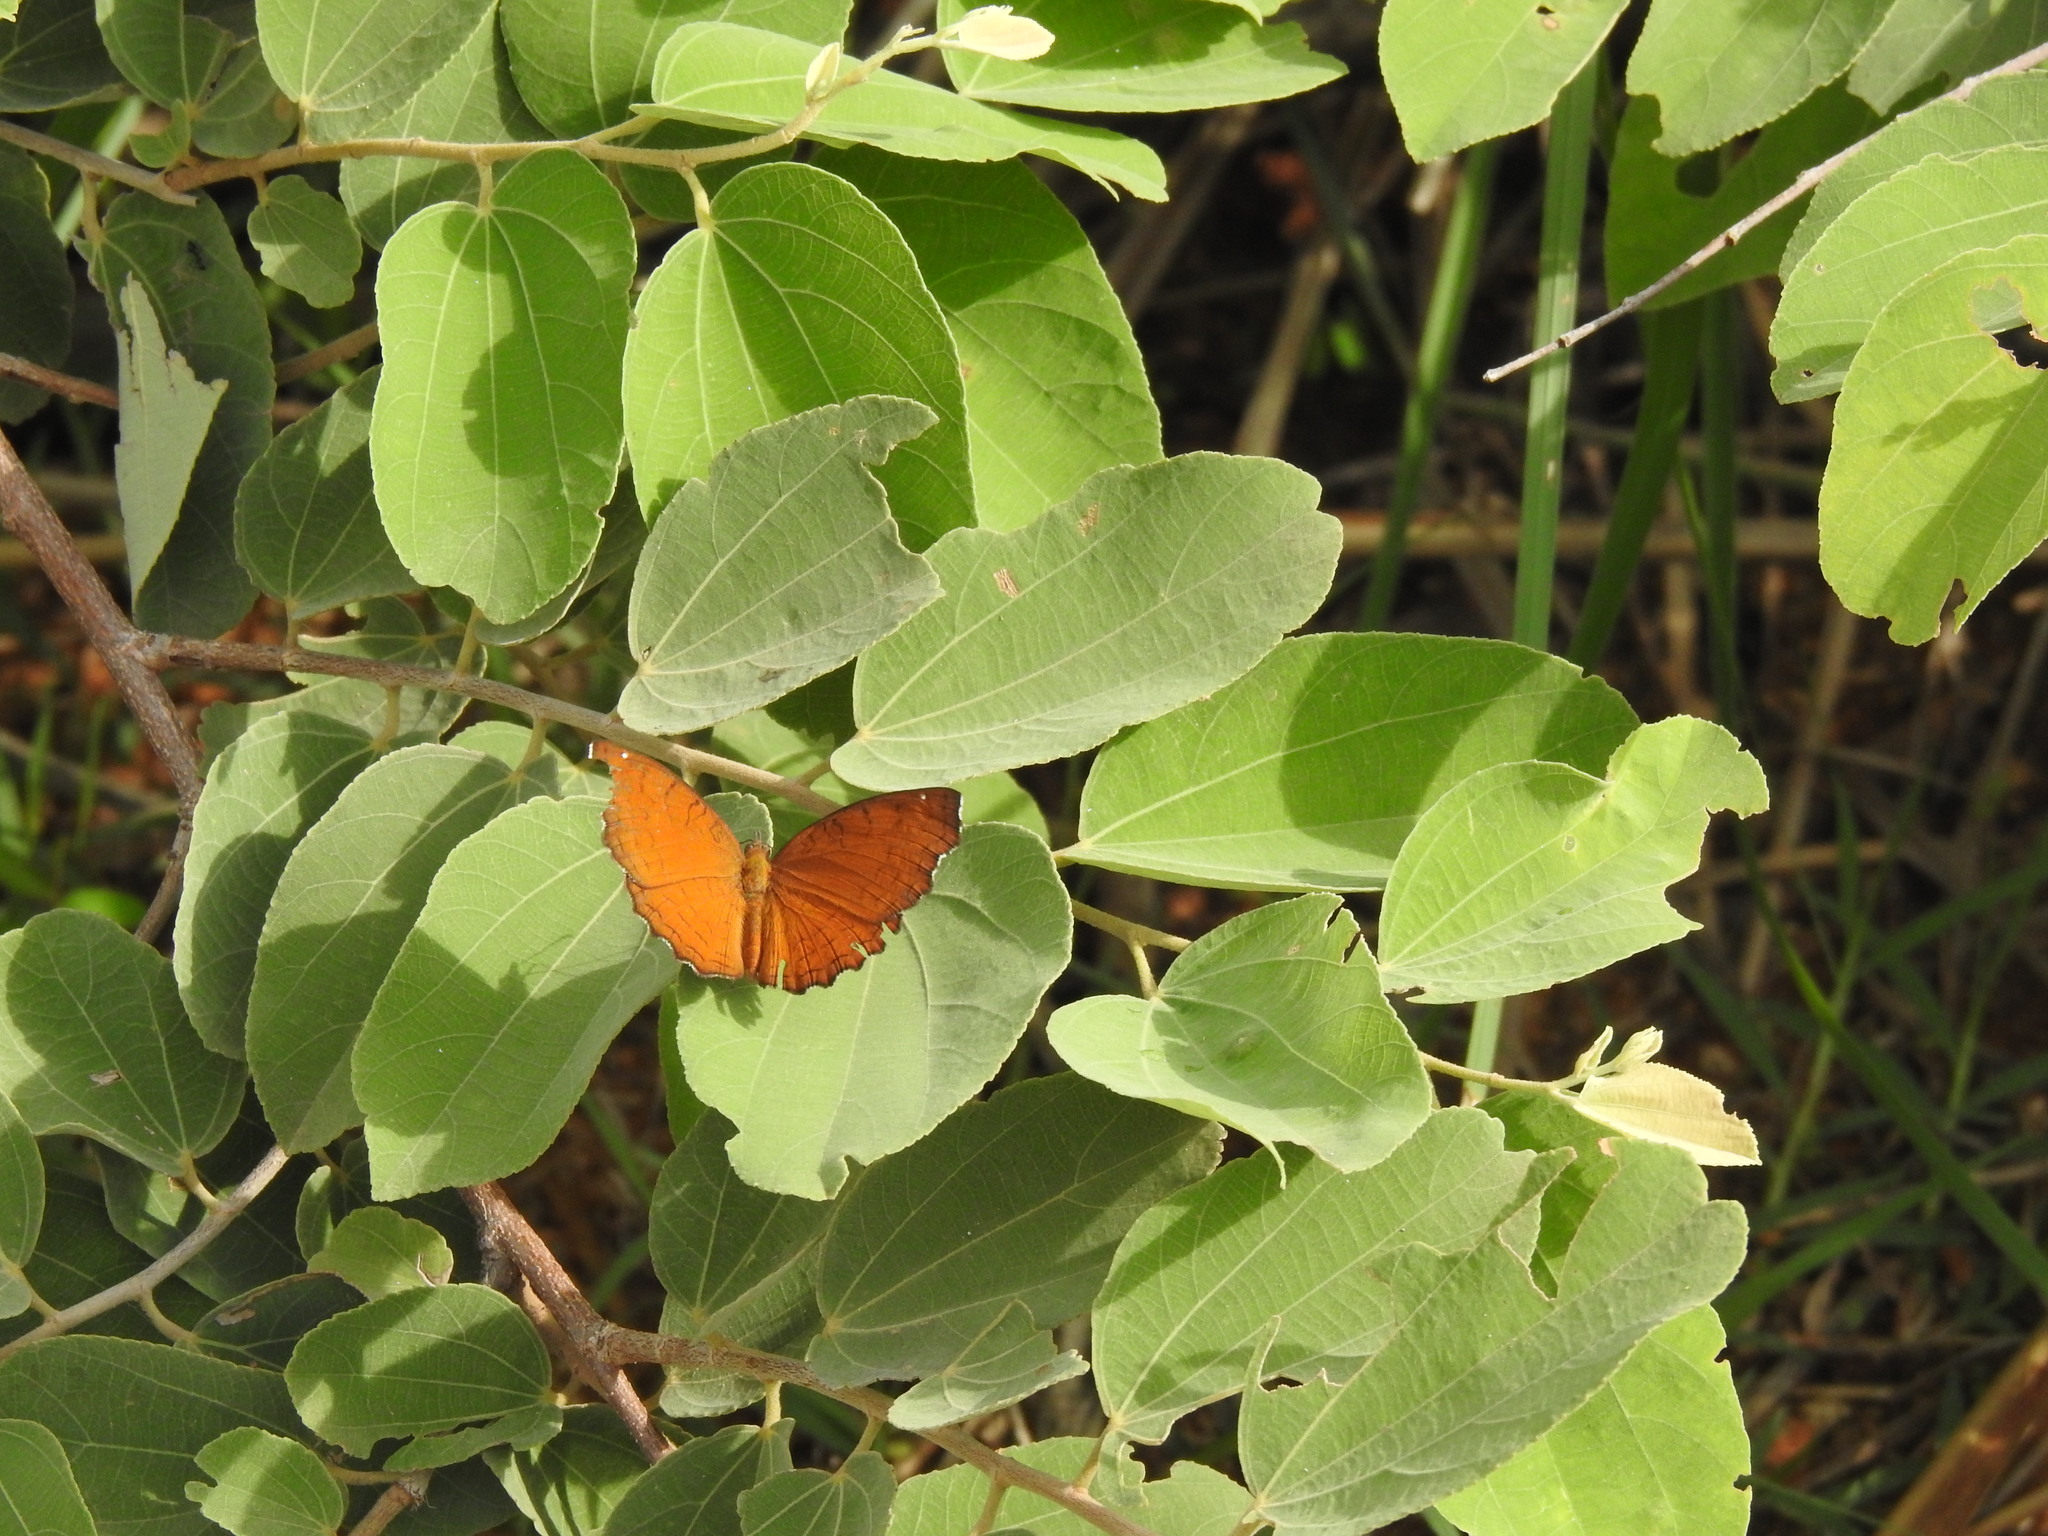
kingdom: Animalia
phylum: Arthropoda
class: Insecta
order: Lepidoptera
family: Nymphalidae
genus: Ariadne
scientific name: Ariadne ariadne
